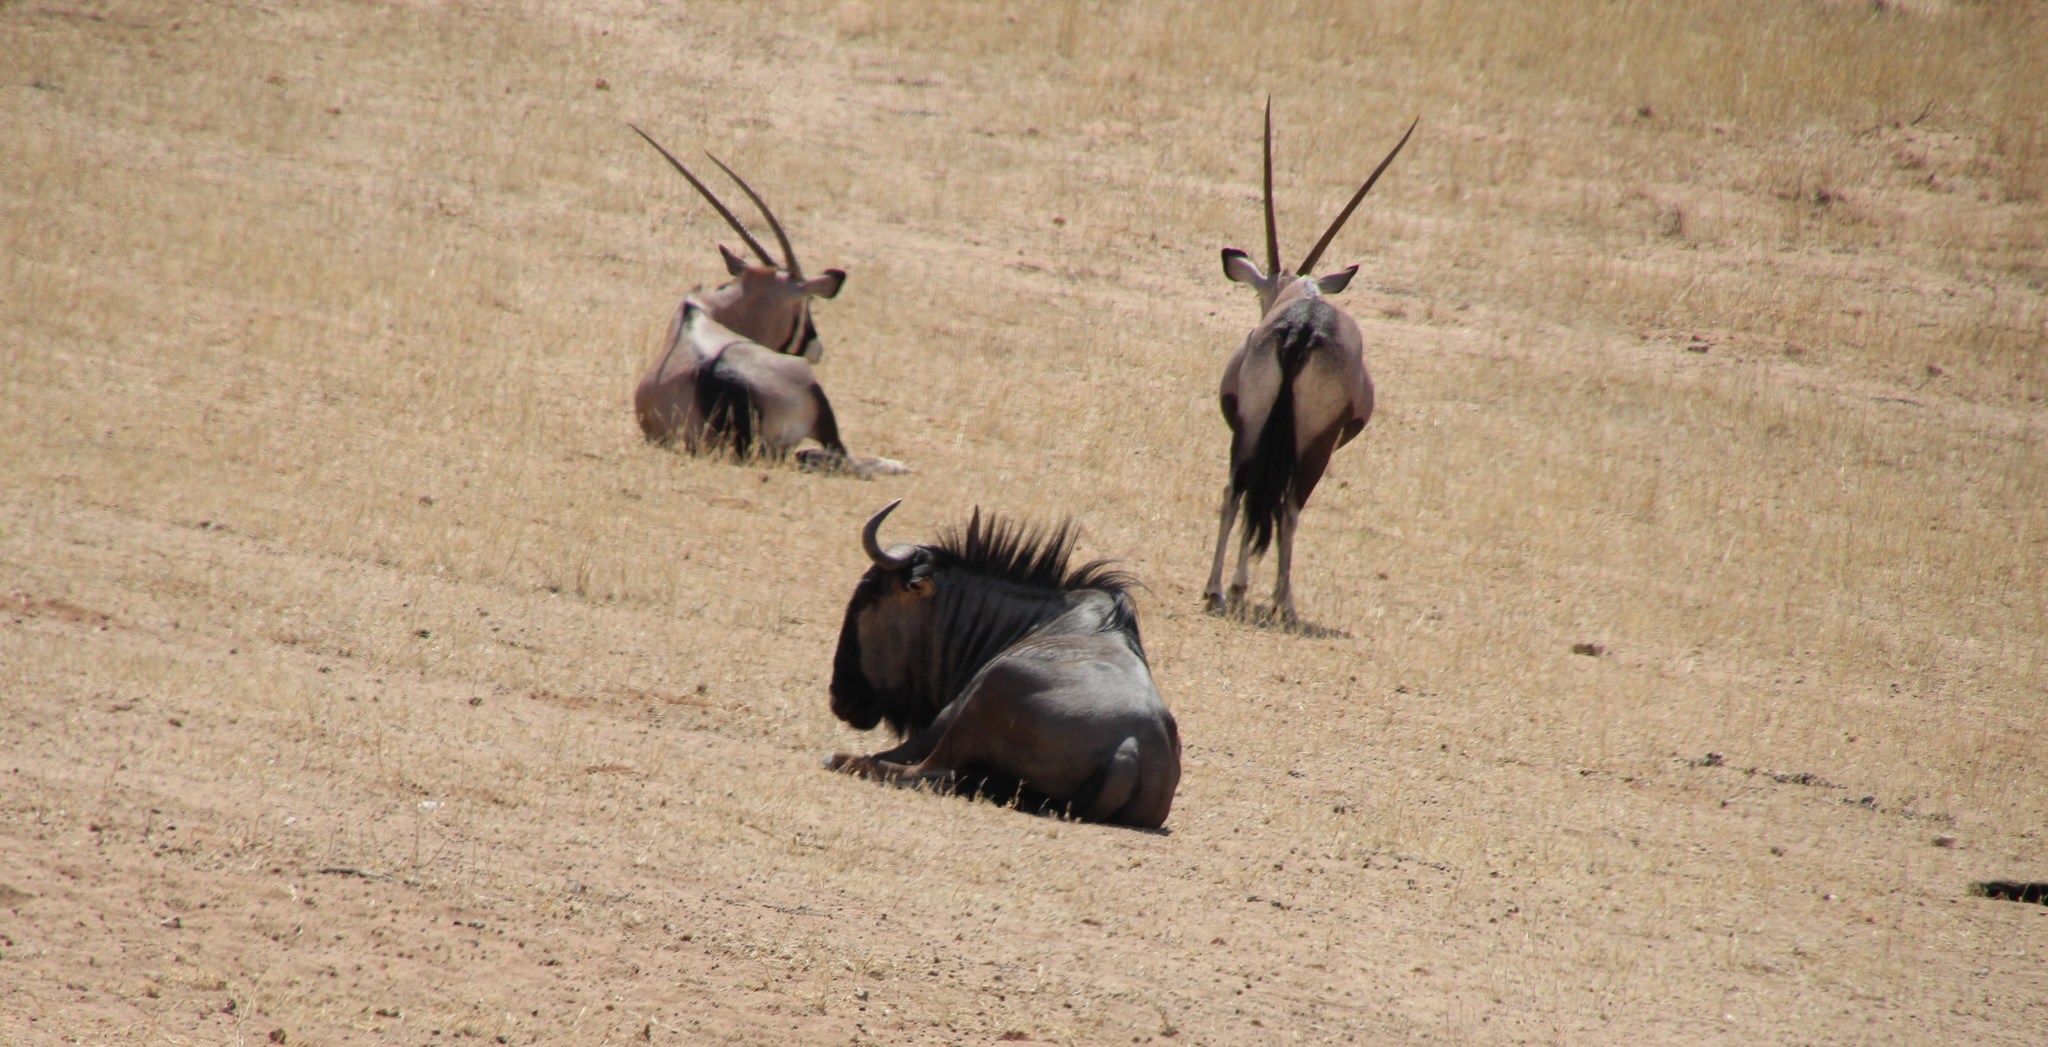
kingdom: Animalia
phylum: Chordata
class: Mammalia
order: Artiodactyla
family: Bovidae
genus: Connochaetes
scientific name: Connochaetes taurinus
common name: Blue wildebeest
